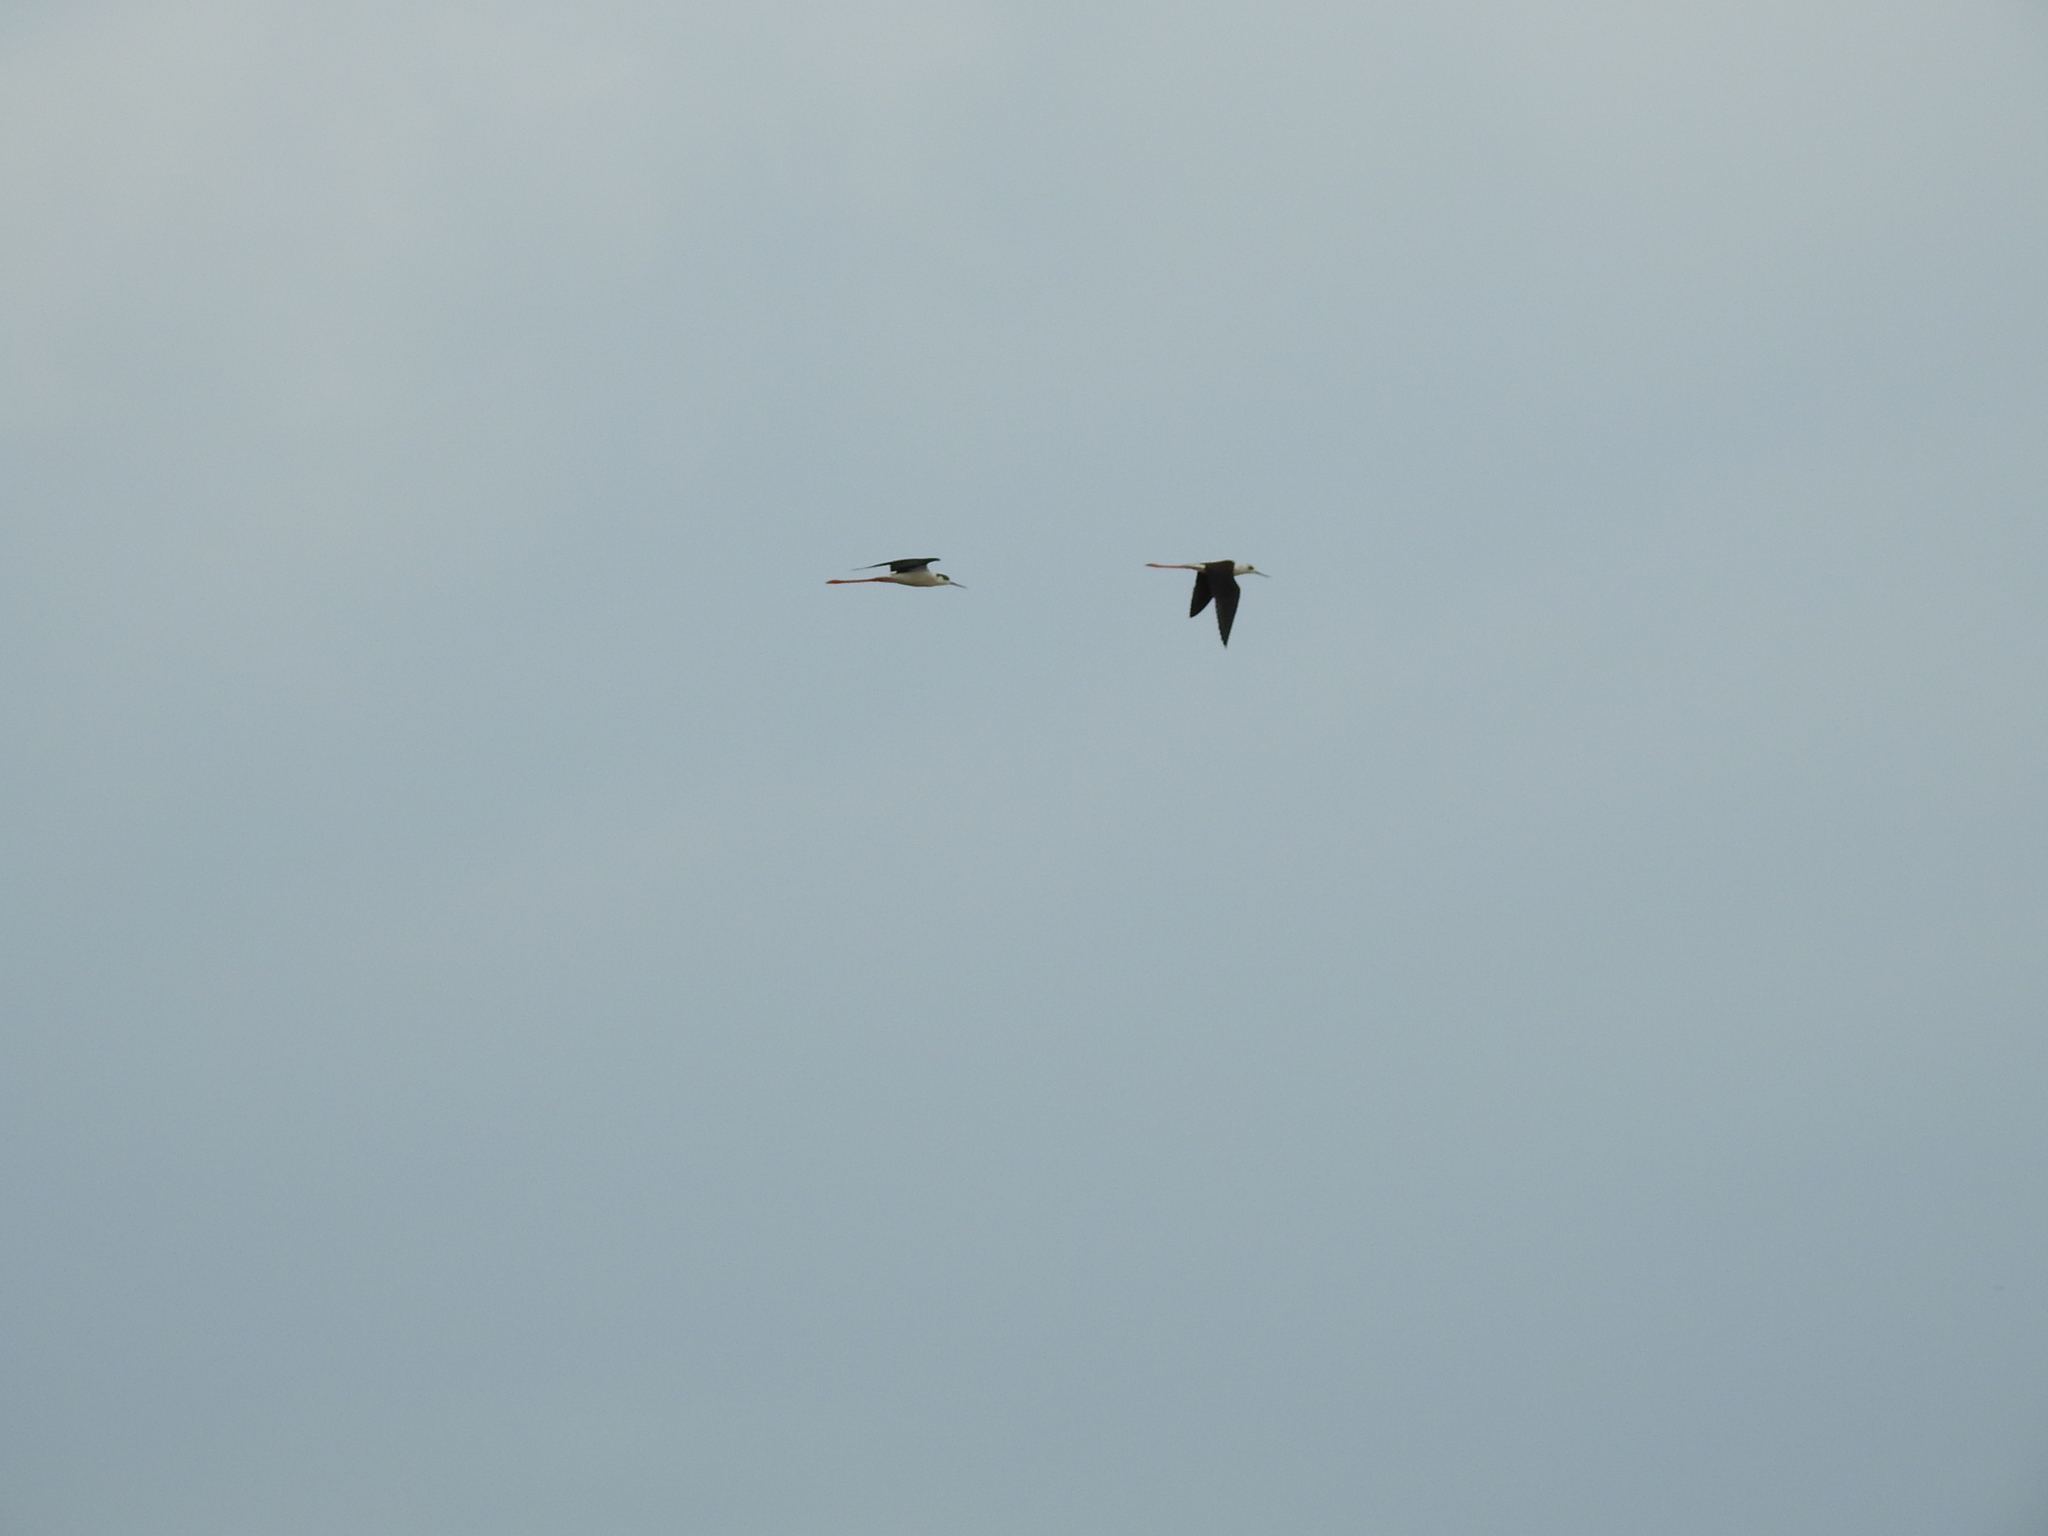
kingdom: Animalia
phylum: Chordata
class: Aves
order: Charadriiformes
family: Recurvirostridae
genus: Himantopus
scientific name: Himantopus himantopus
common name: Black-winged stilt
